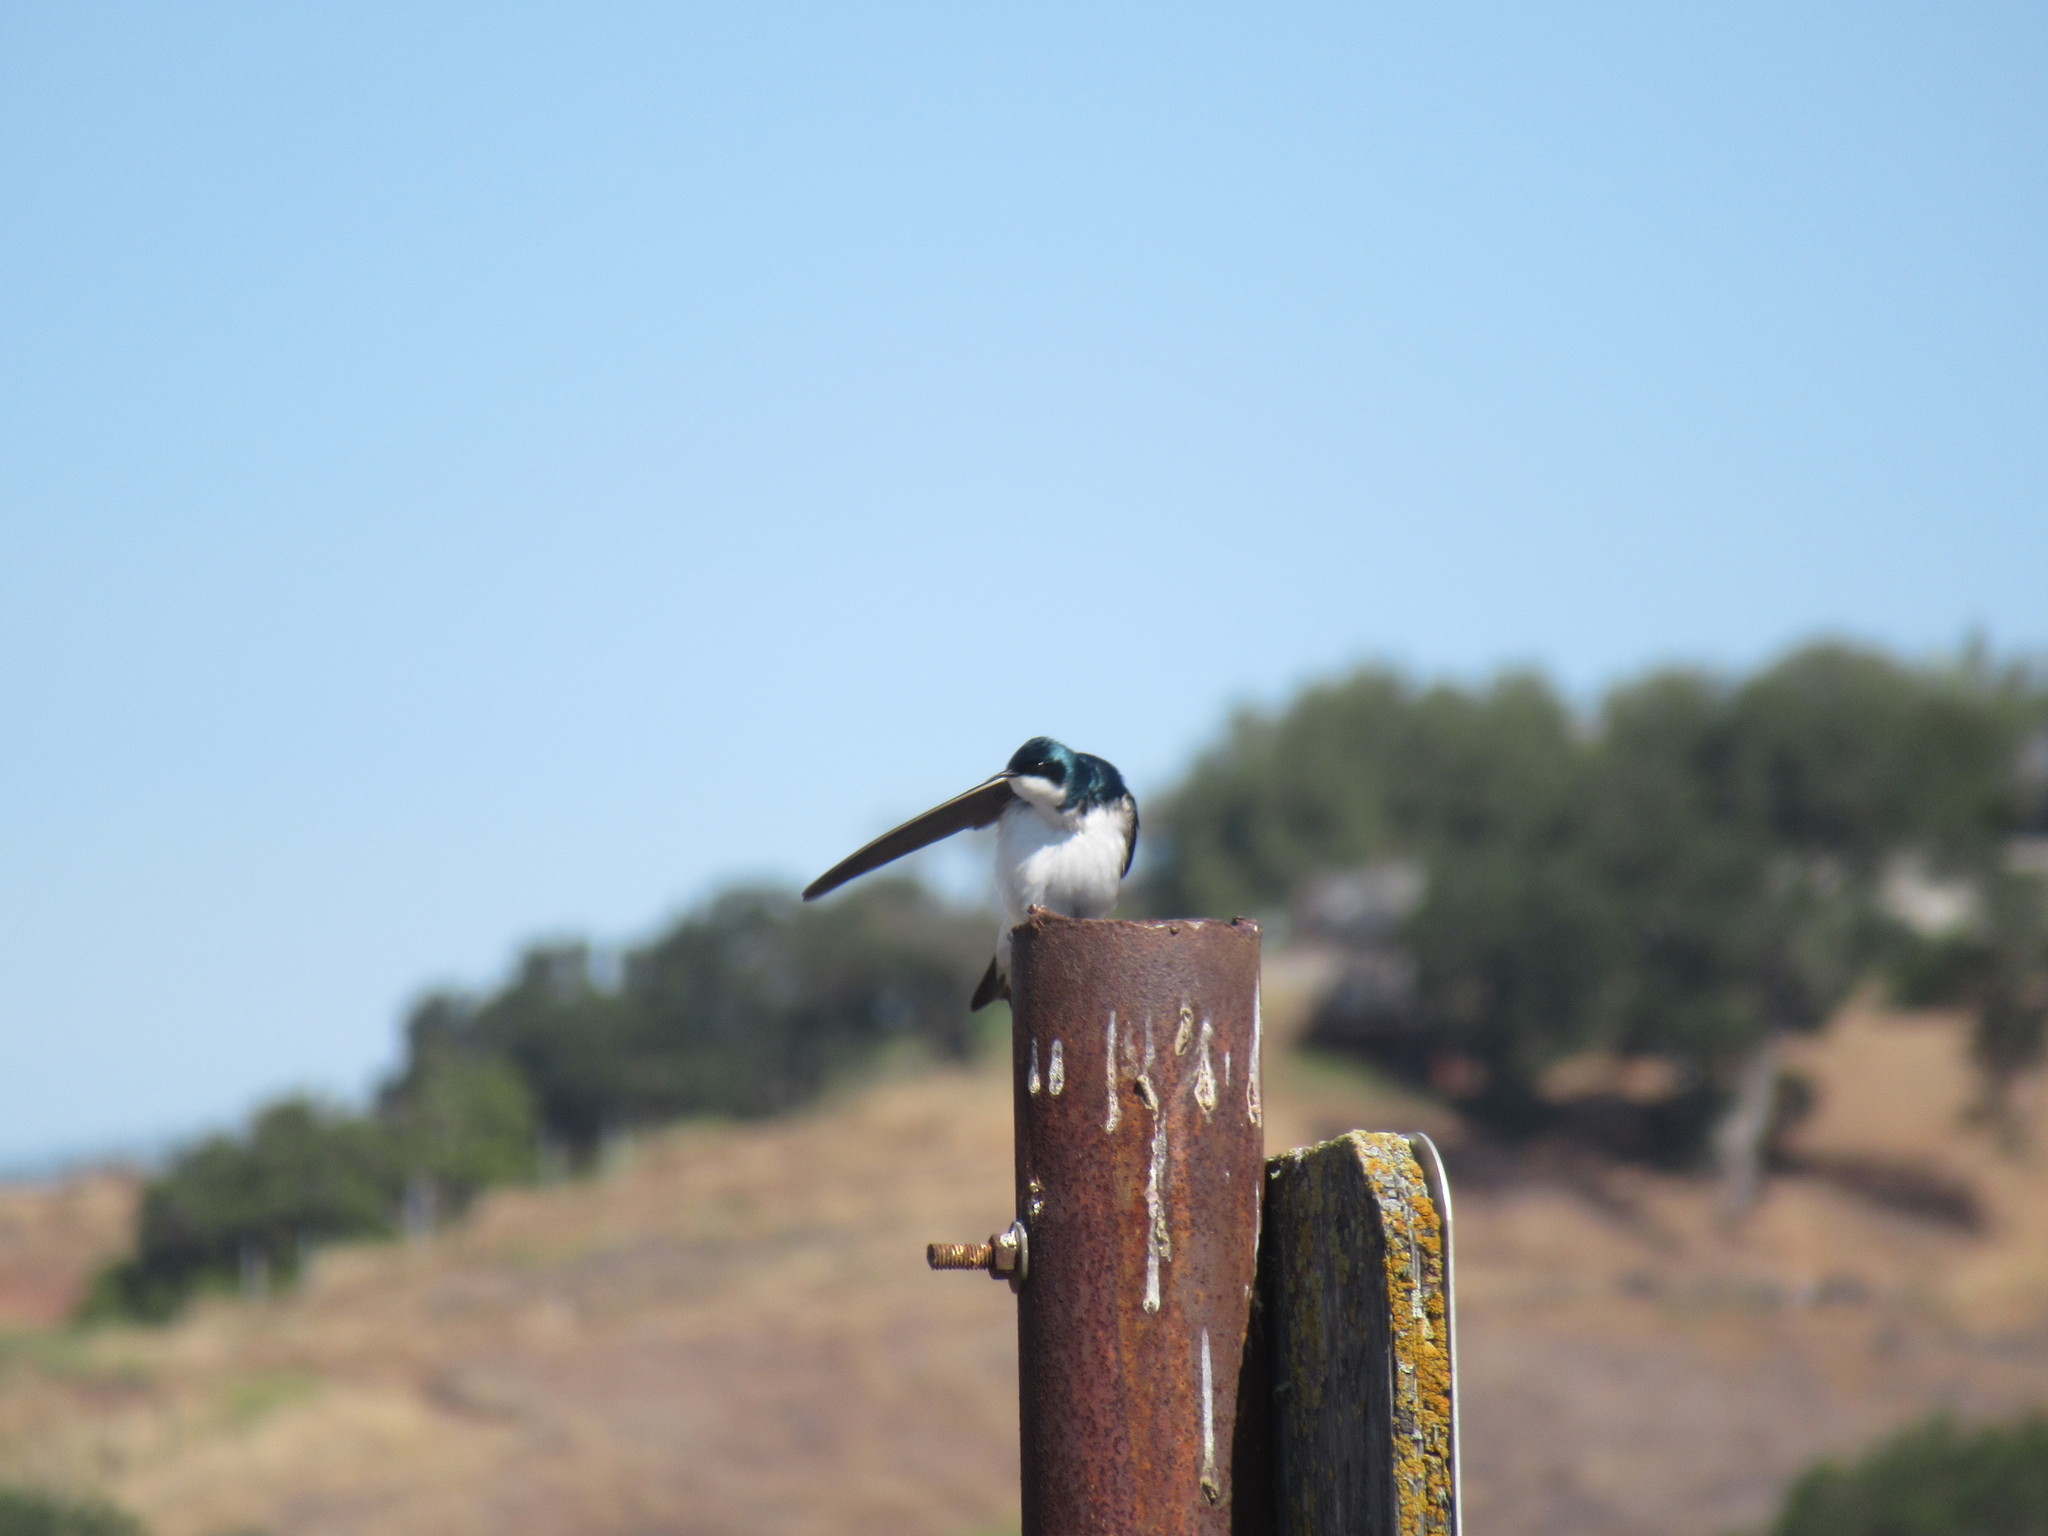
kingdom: Animalia
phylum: Chordata
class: Aves
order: Passeriformes
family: Hirundinidae
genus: Tachycineta
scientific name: Tachycineta bicolor
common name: Tree swallow
